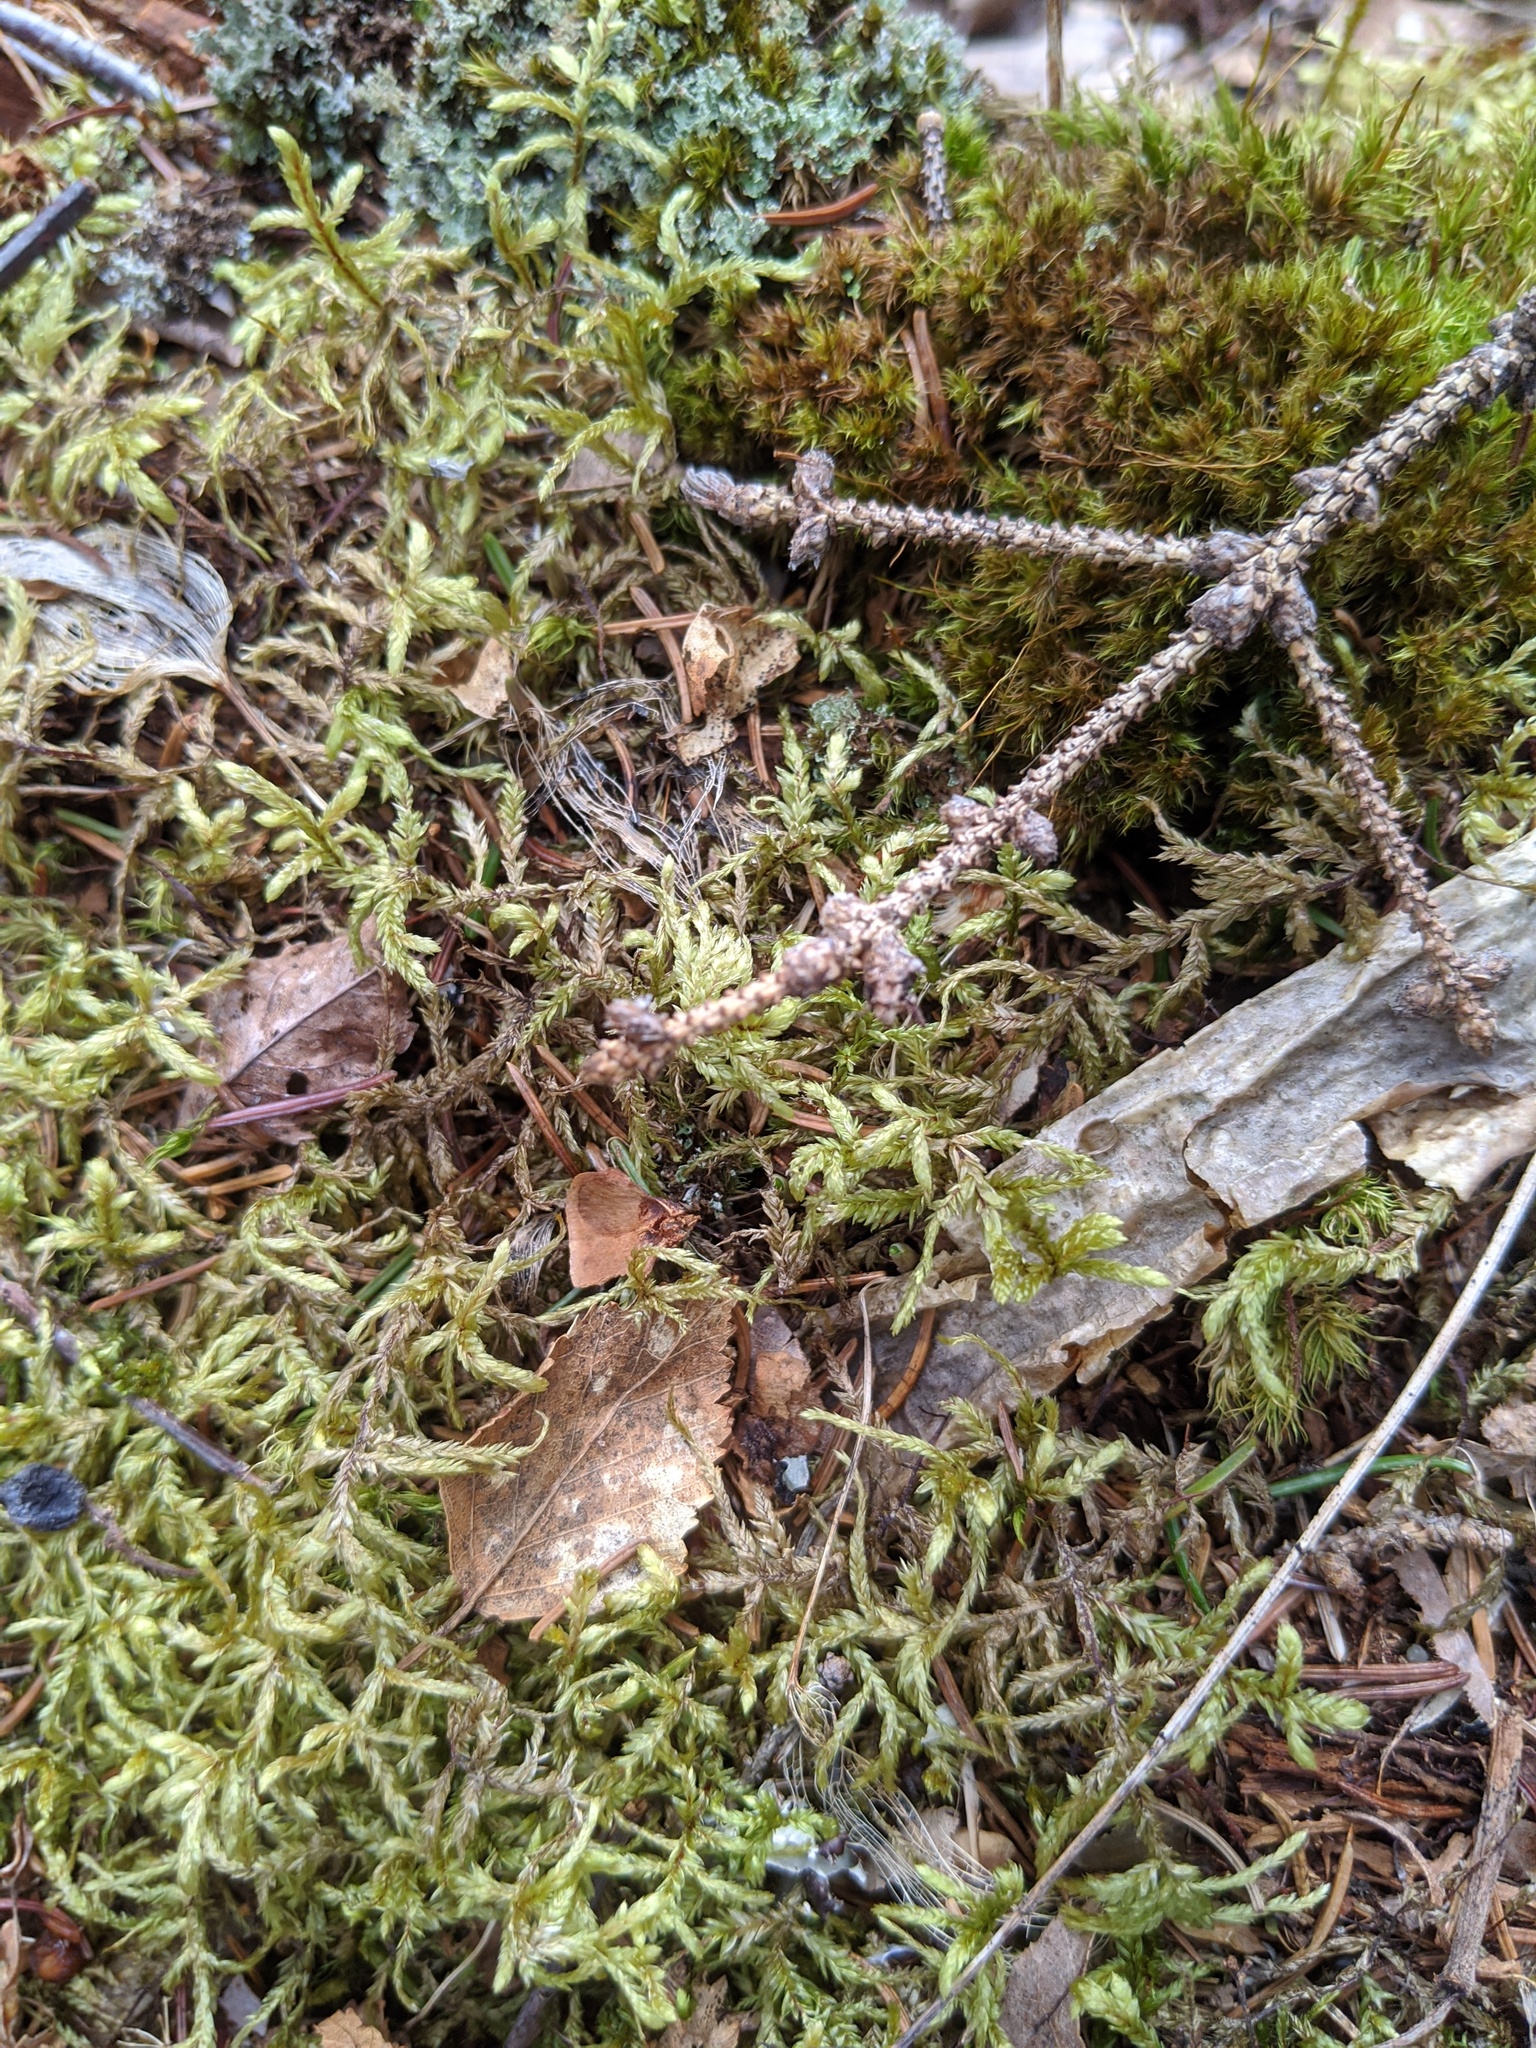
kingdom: Plantae
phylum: Bryophyta
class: Bryopsida
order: Hypnales
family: Hylocomiaceae
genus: Pleurozium
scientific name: Pleurozium schreberi
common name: Red-stemmed feather moss
